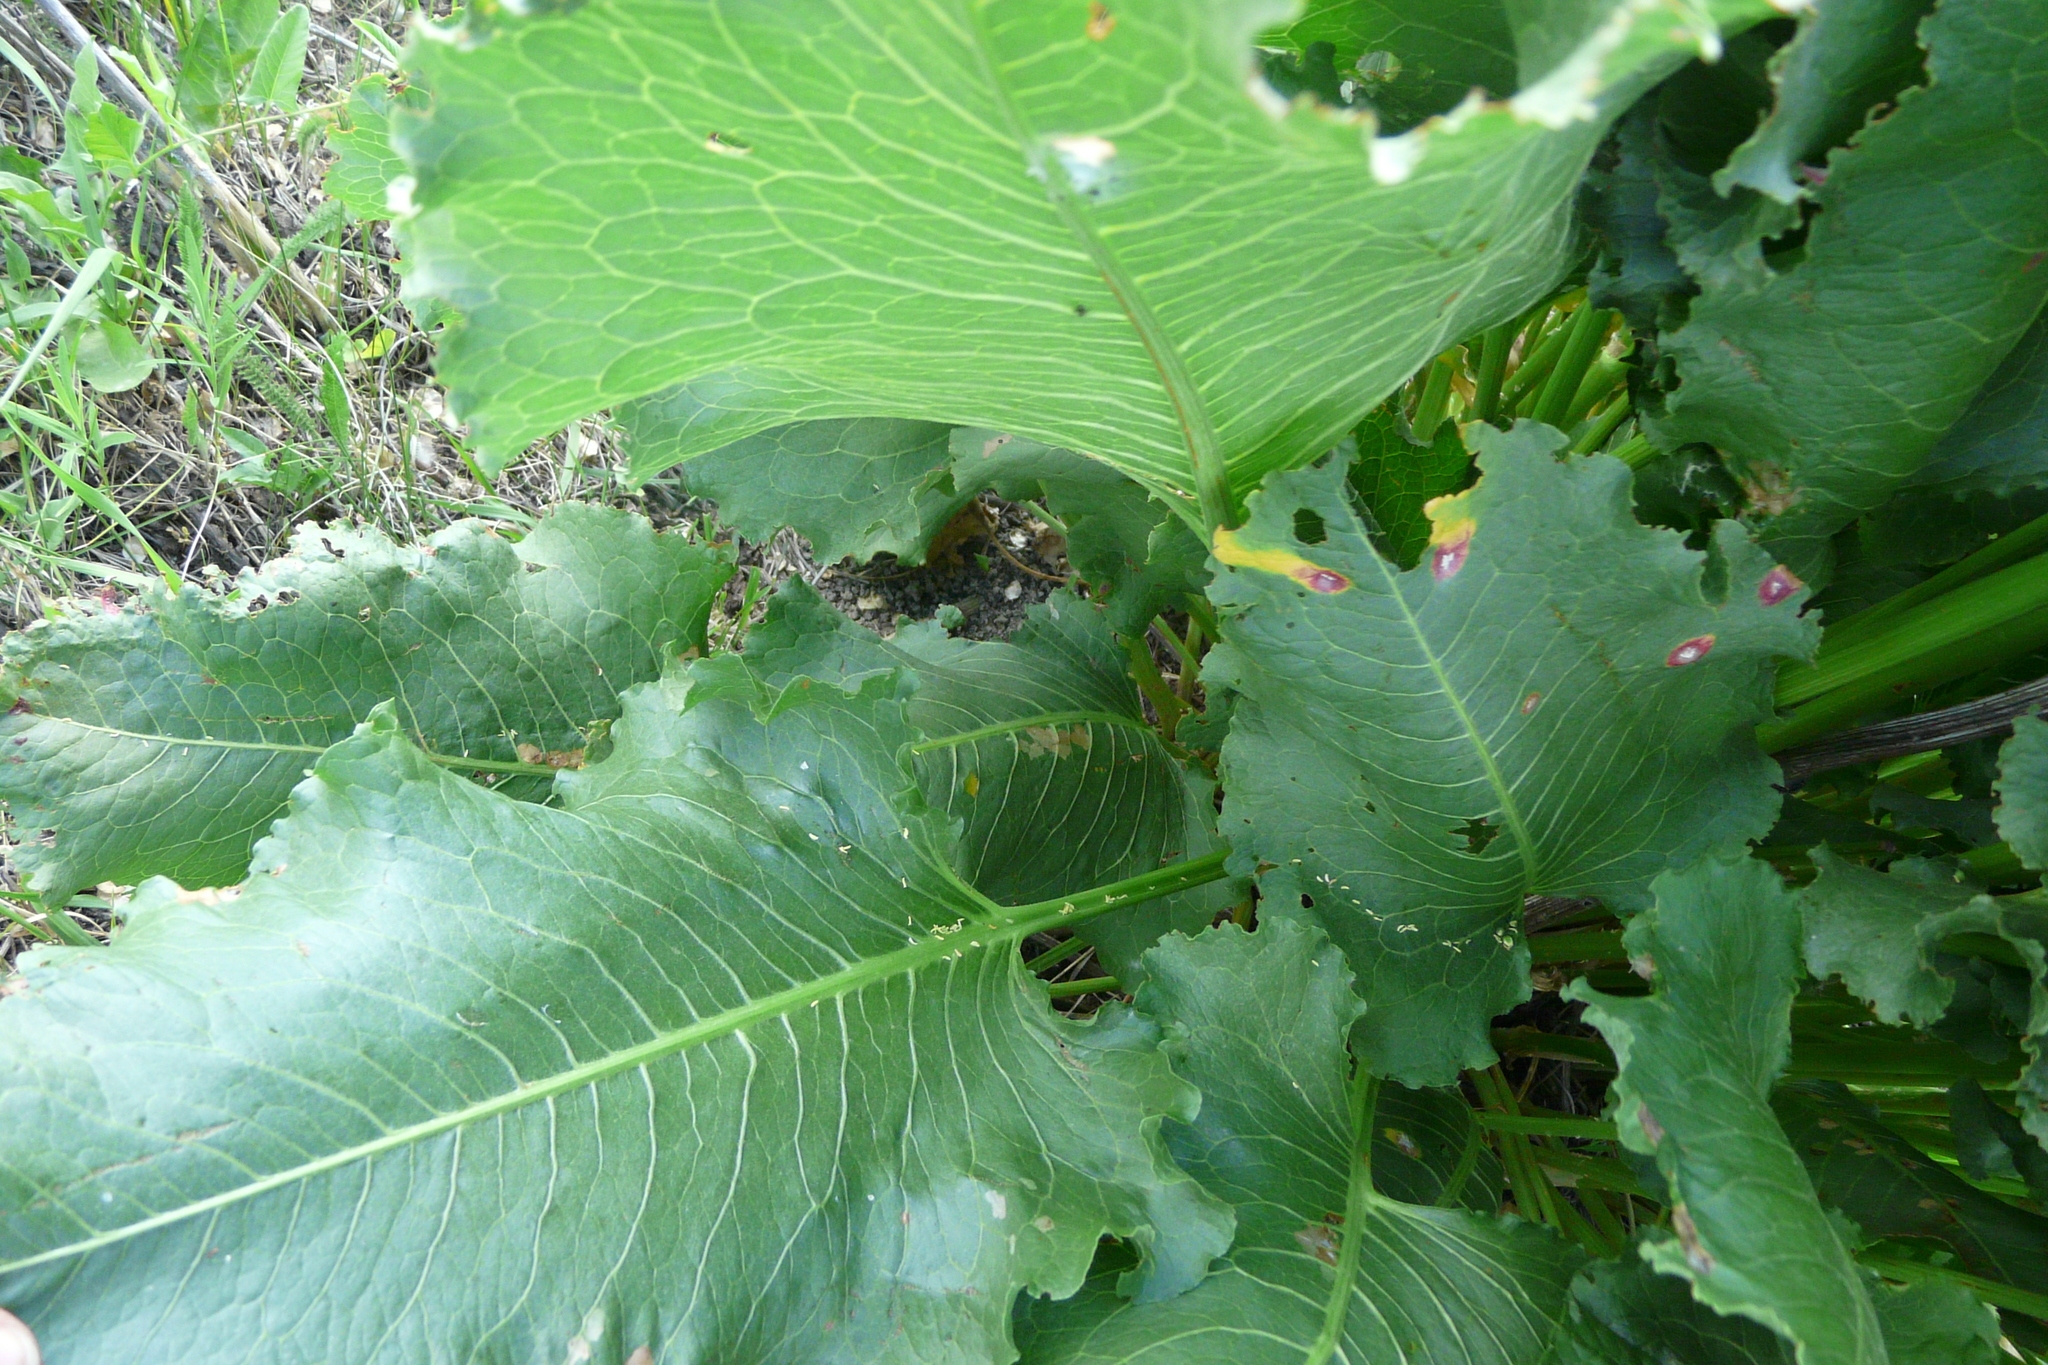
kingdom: Plantae
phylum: Tracheophyta
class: Magnoliopsida
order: Caryophyllales
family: Polygonaceae
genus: Rumex
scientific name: Rumex confertus
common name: Russian dock
